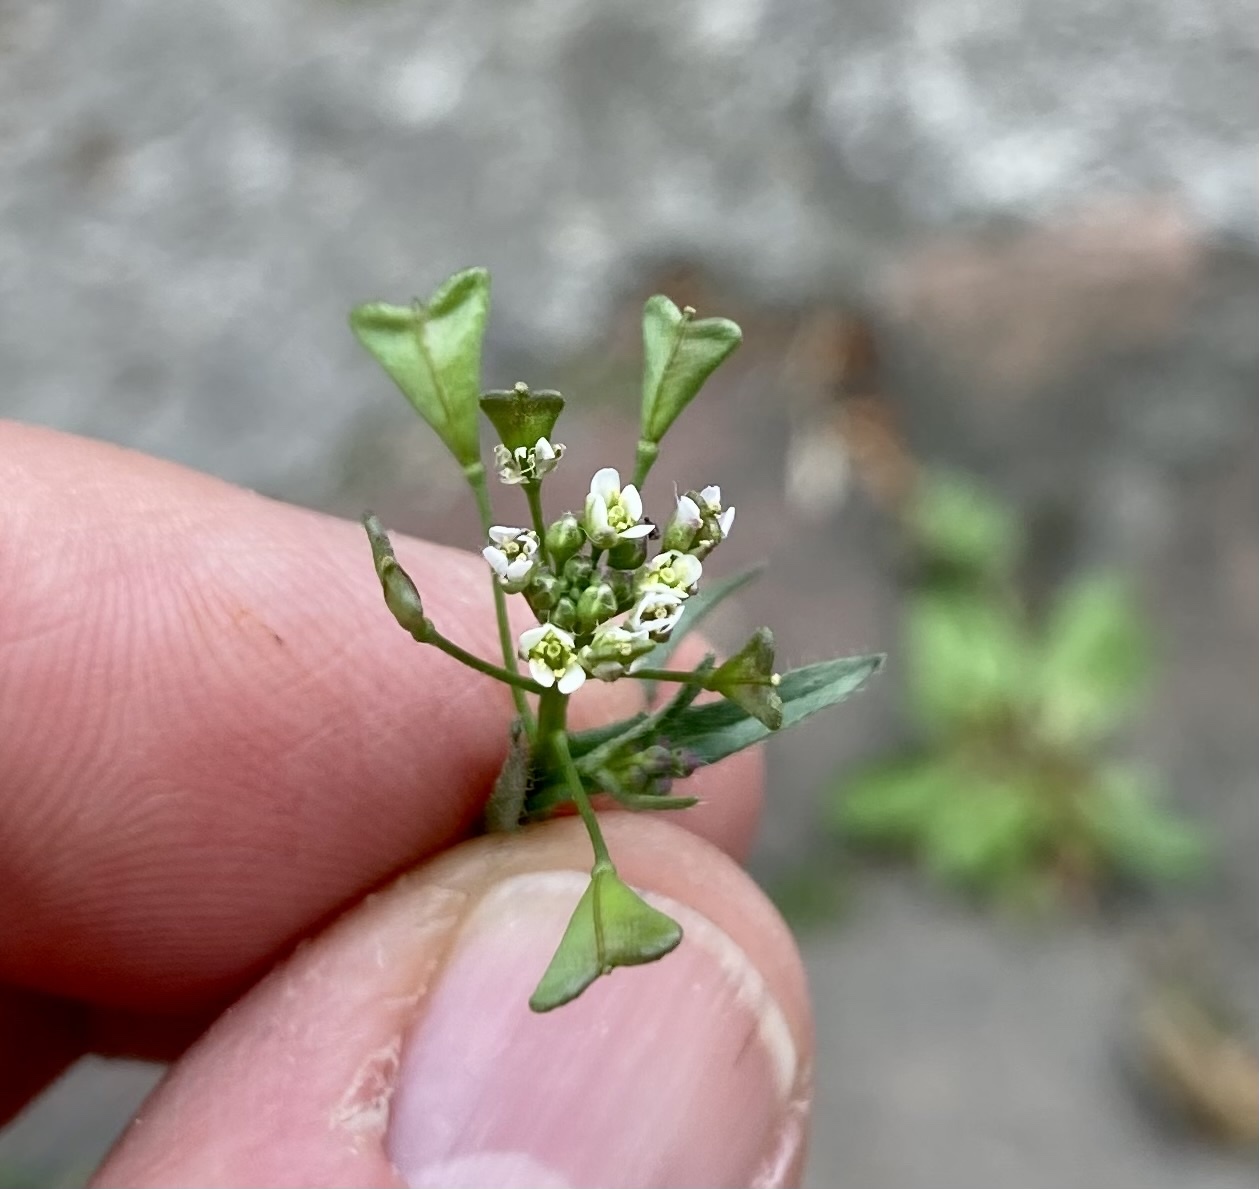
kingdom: Plantae
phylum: Tracheophyta
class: Magnoliopsida
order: Brassicales
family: Brassicaceae
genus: Capsella
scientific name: Capsella bursa-pastoris
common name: Shepherd's purse
